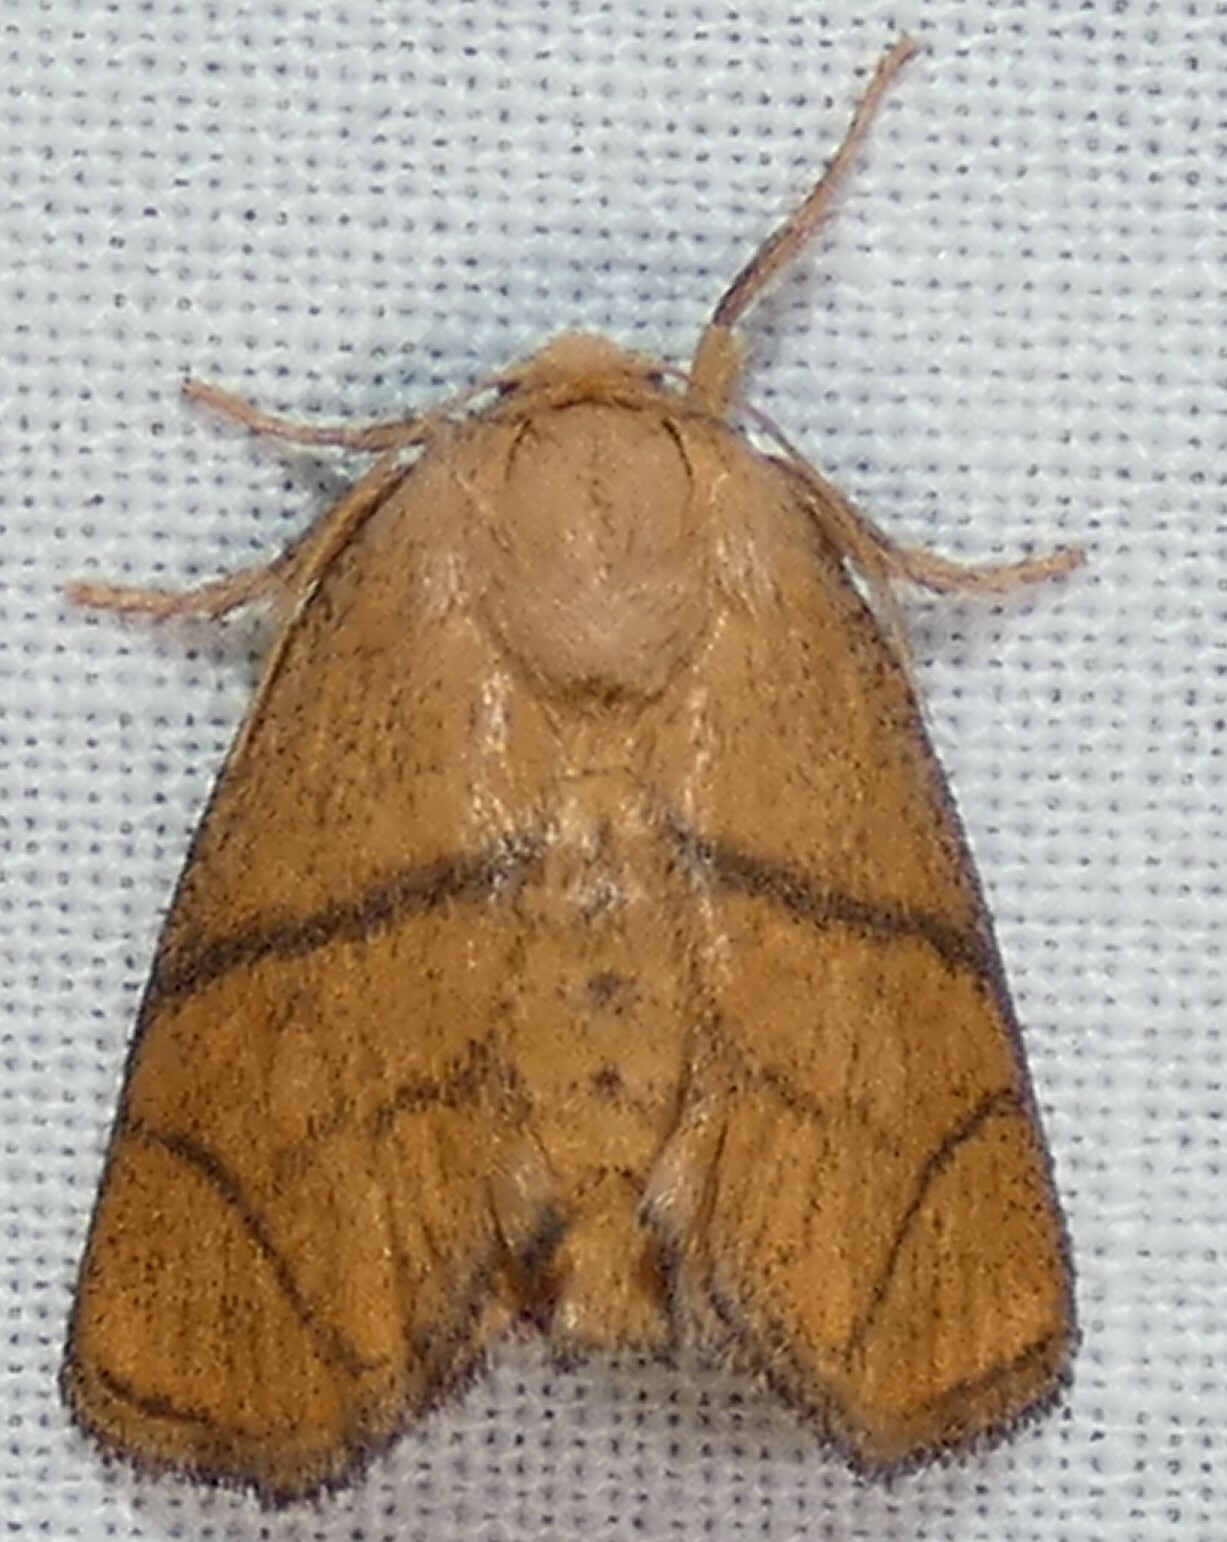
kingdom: Animalia
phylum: Arthropoda
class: Insecta
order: Lepidoptera
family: Limacodidae
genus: Apoda
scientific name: Apoda y-inversa
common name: Yellow-collared slug moth
